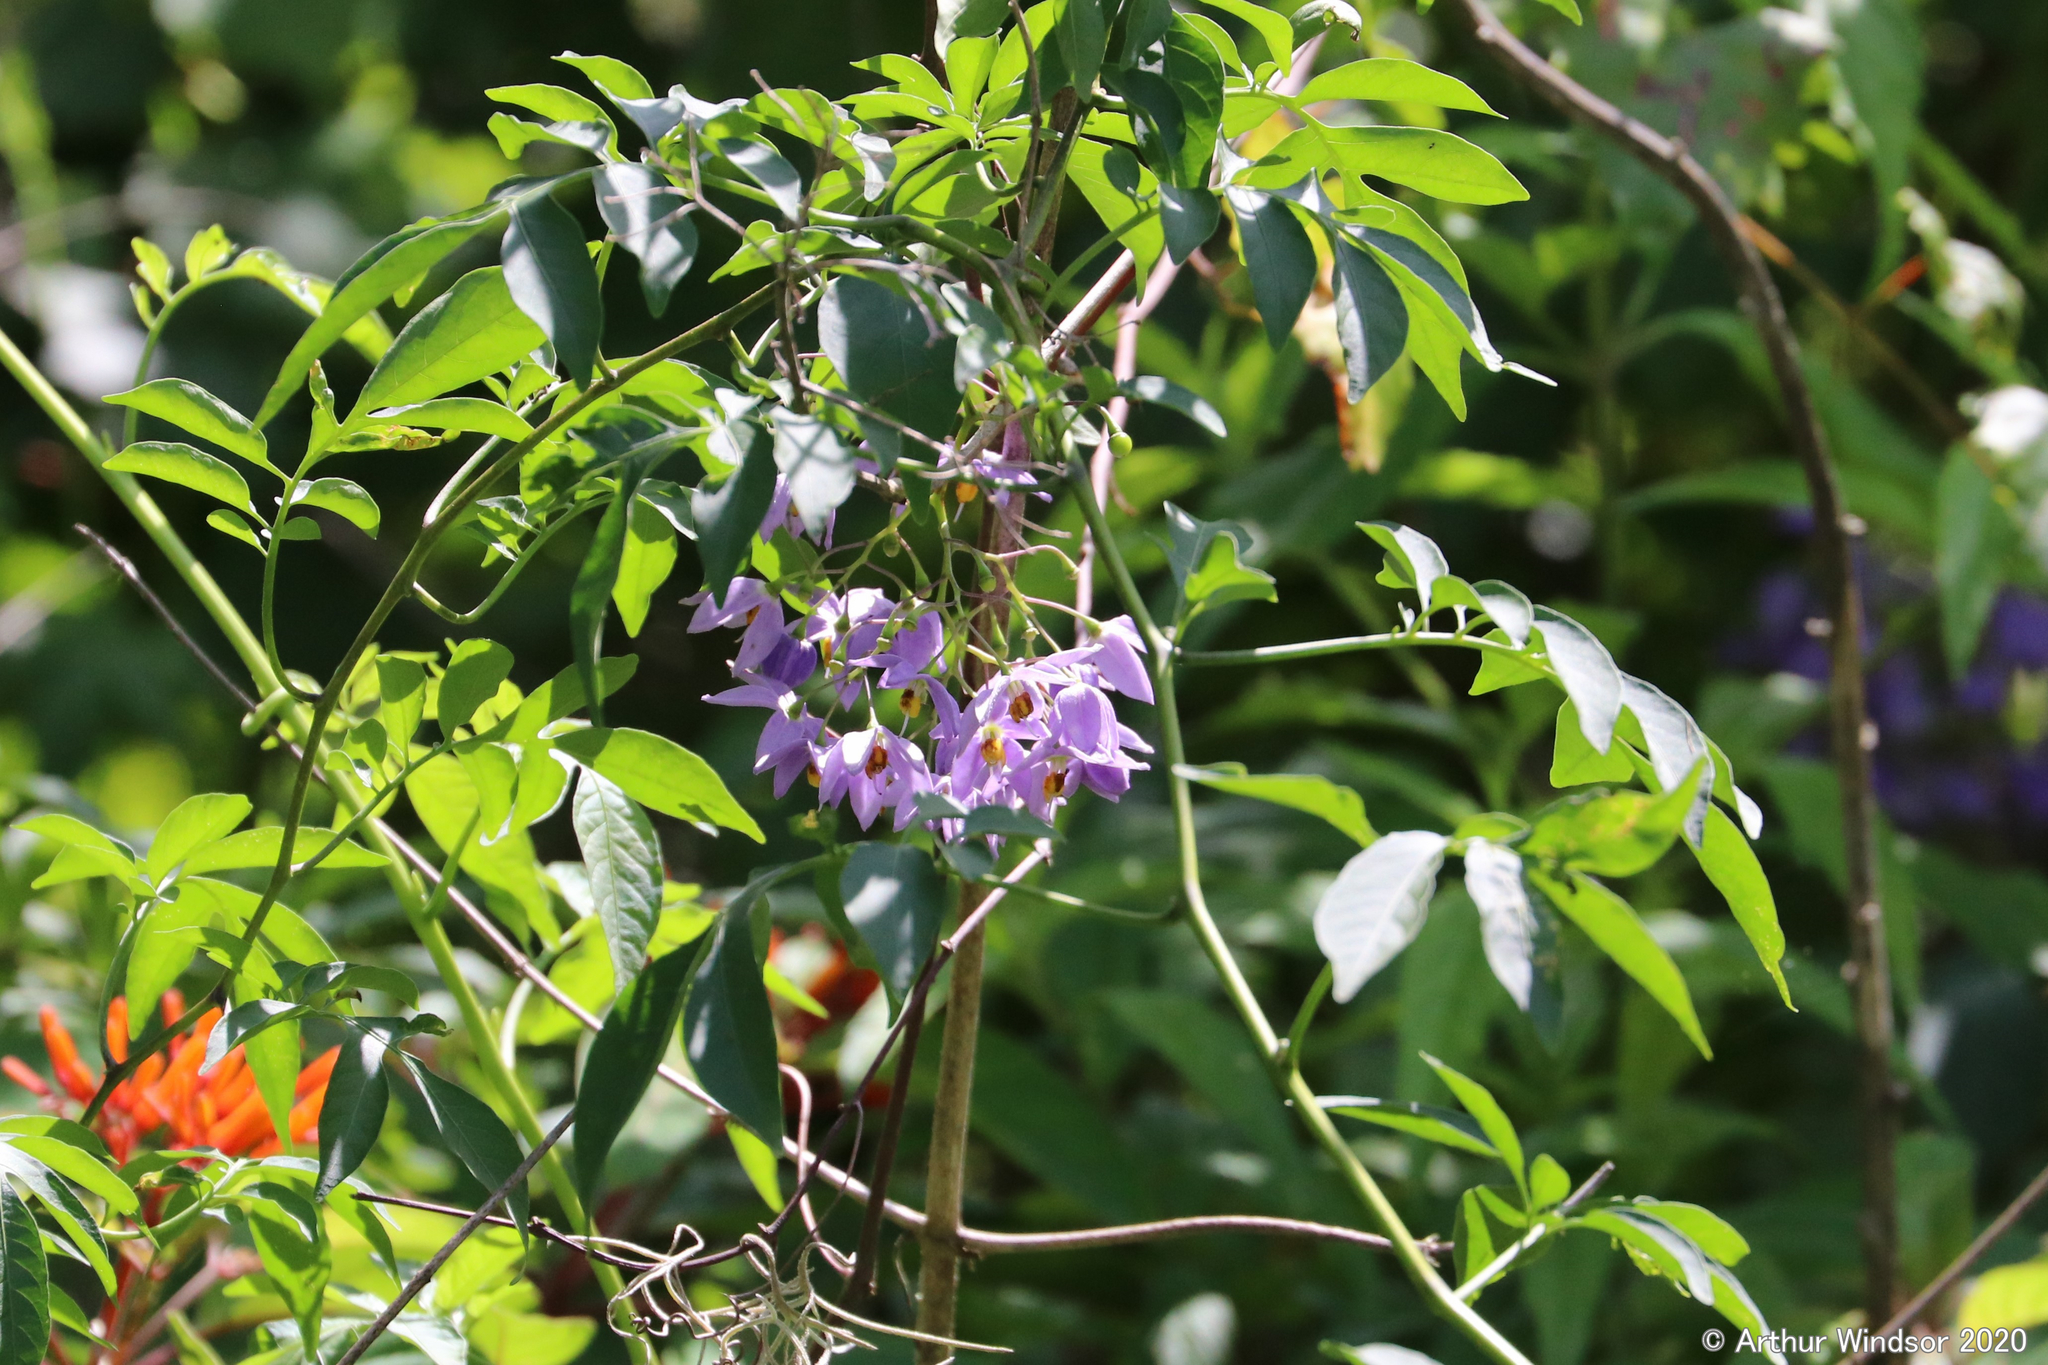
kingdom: Plantae
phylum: Tracheophyta
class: Magnoliopsida
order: Solanales
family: Solanaceae
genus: Solanum
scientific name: Solanum seaforthianum
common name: Brazilian nightshade
